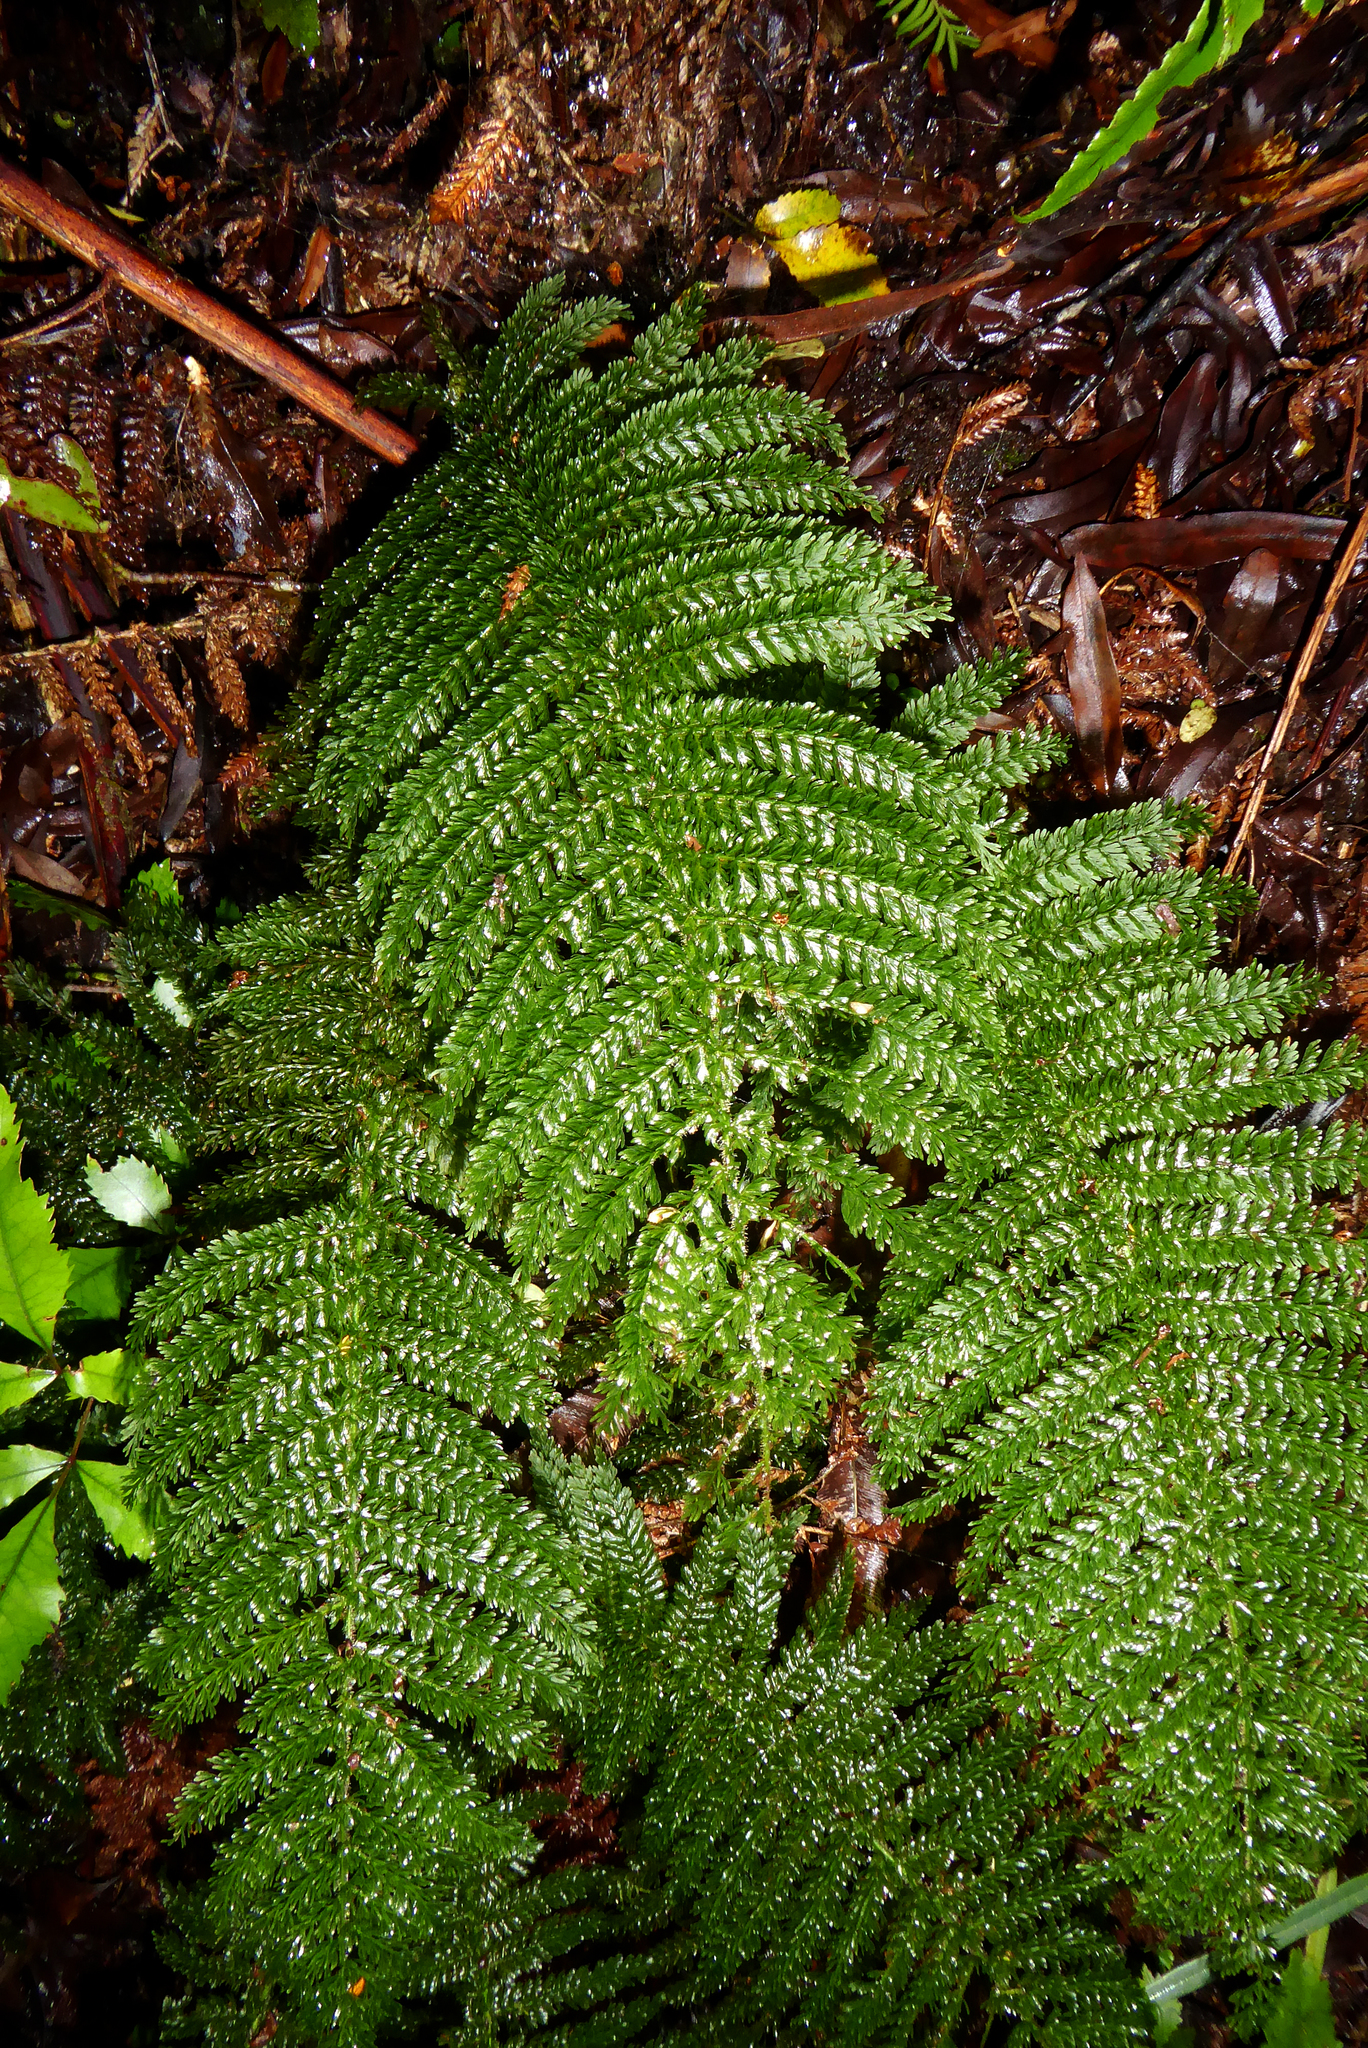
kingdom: Plantae
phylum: Tracheophyta
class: Polypodiopsida
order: Osmundales
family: Osmundaceae
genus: Leptopteris
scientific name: Leptopteris superba
